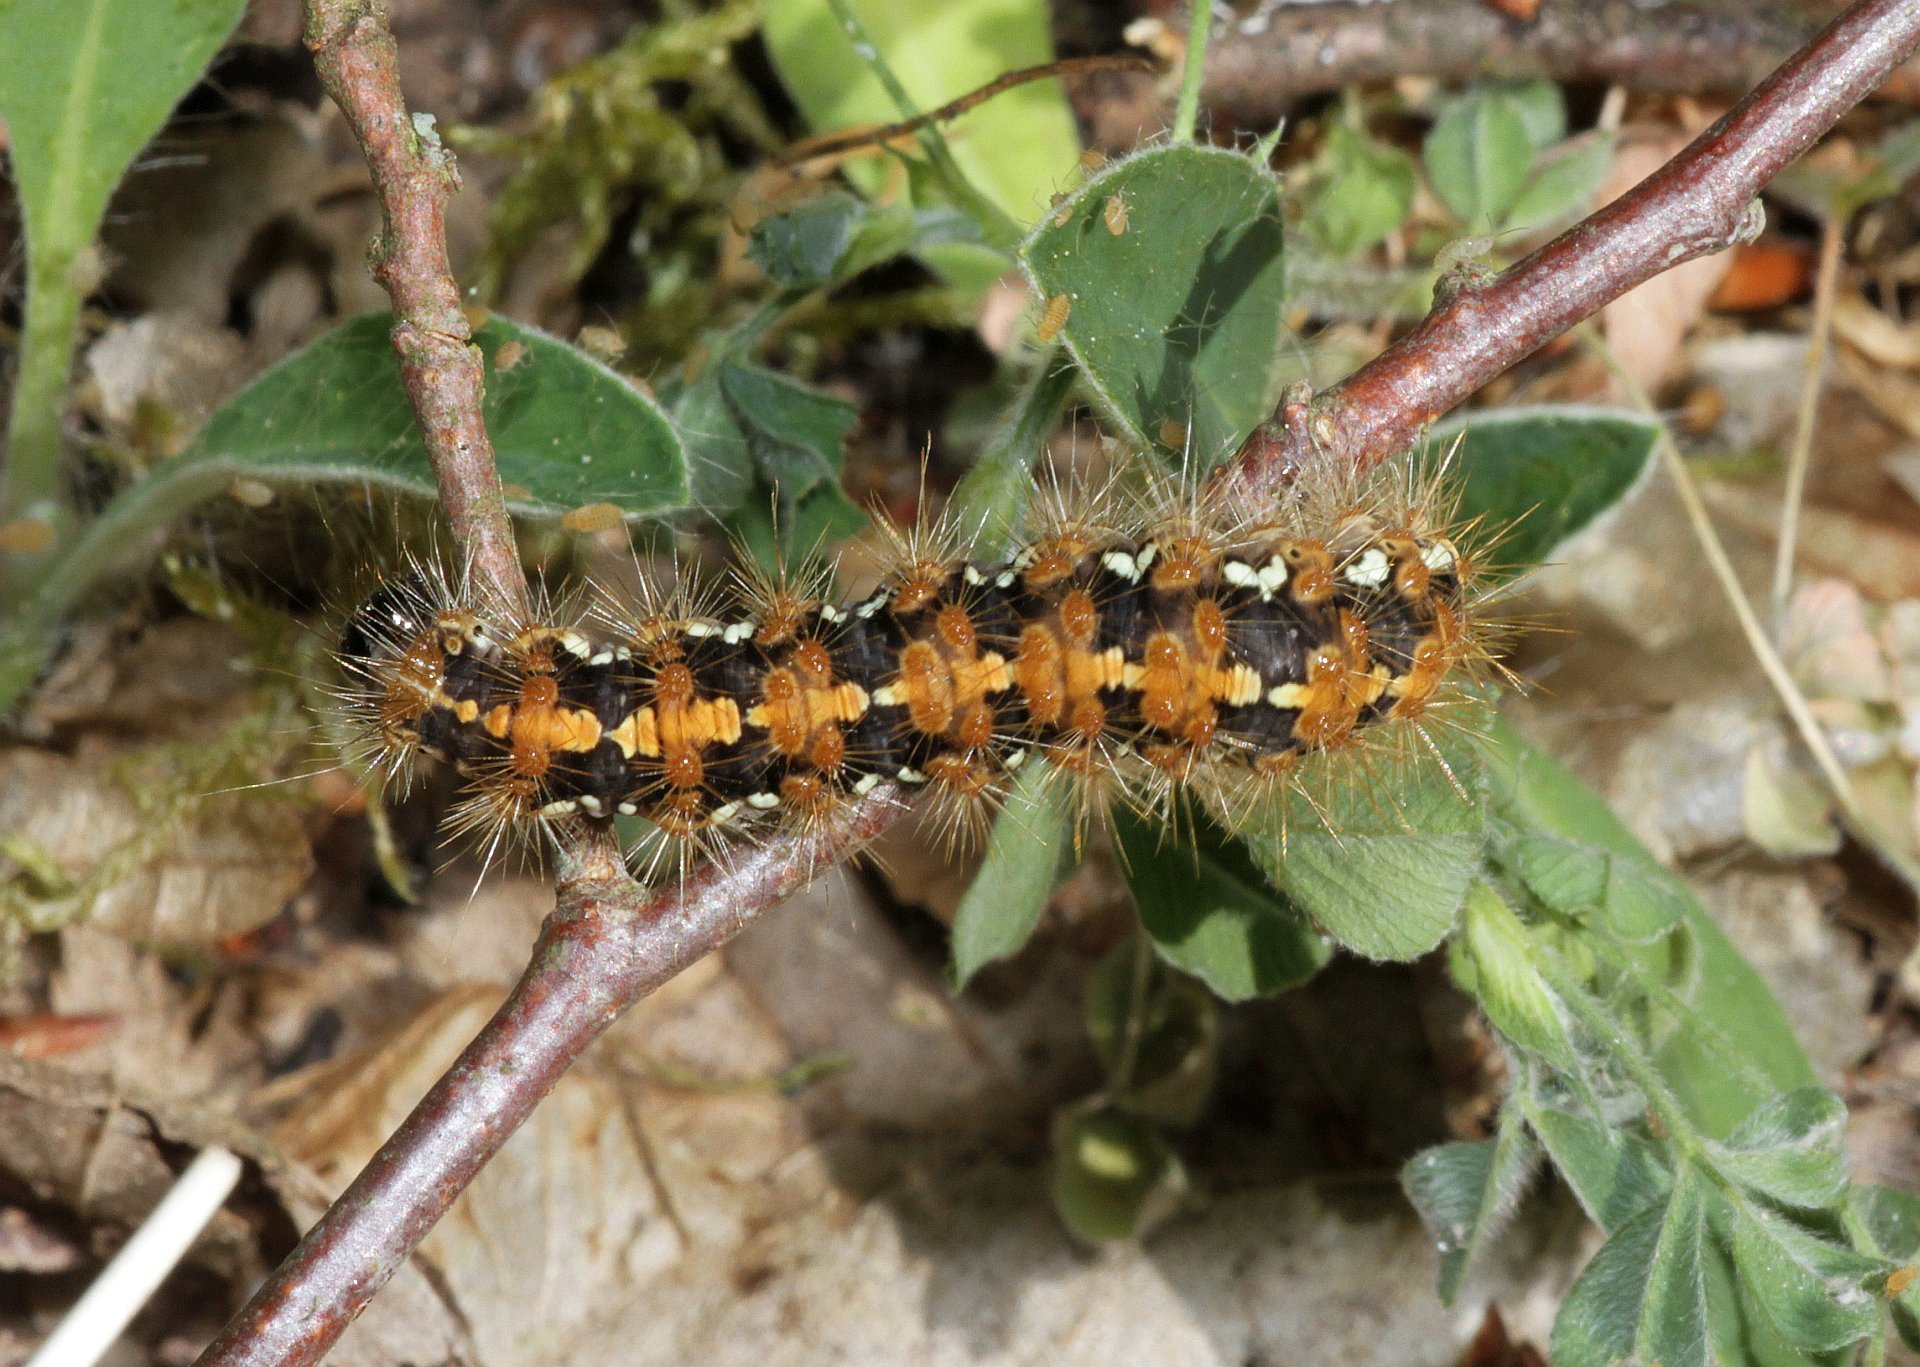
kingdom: Animalia
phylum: Arthropoda
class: Insecta
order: Lepidoptera
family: Erebidae
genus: Euplagia
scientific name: Euplagia quadripunctaria
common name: Jersey tiger
